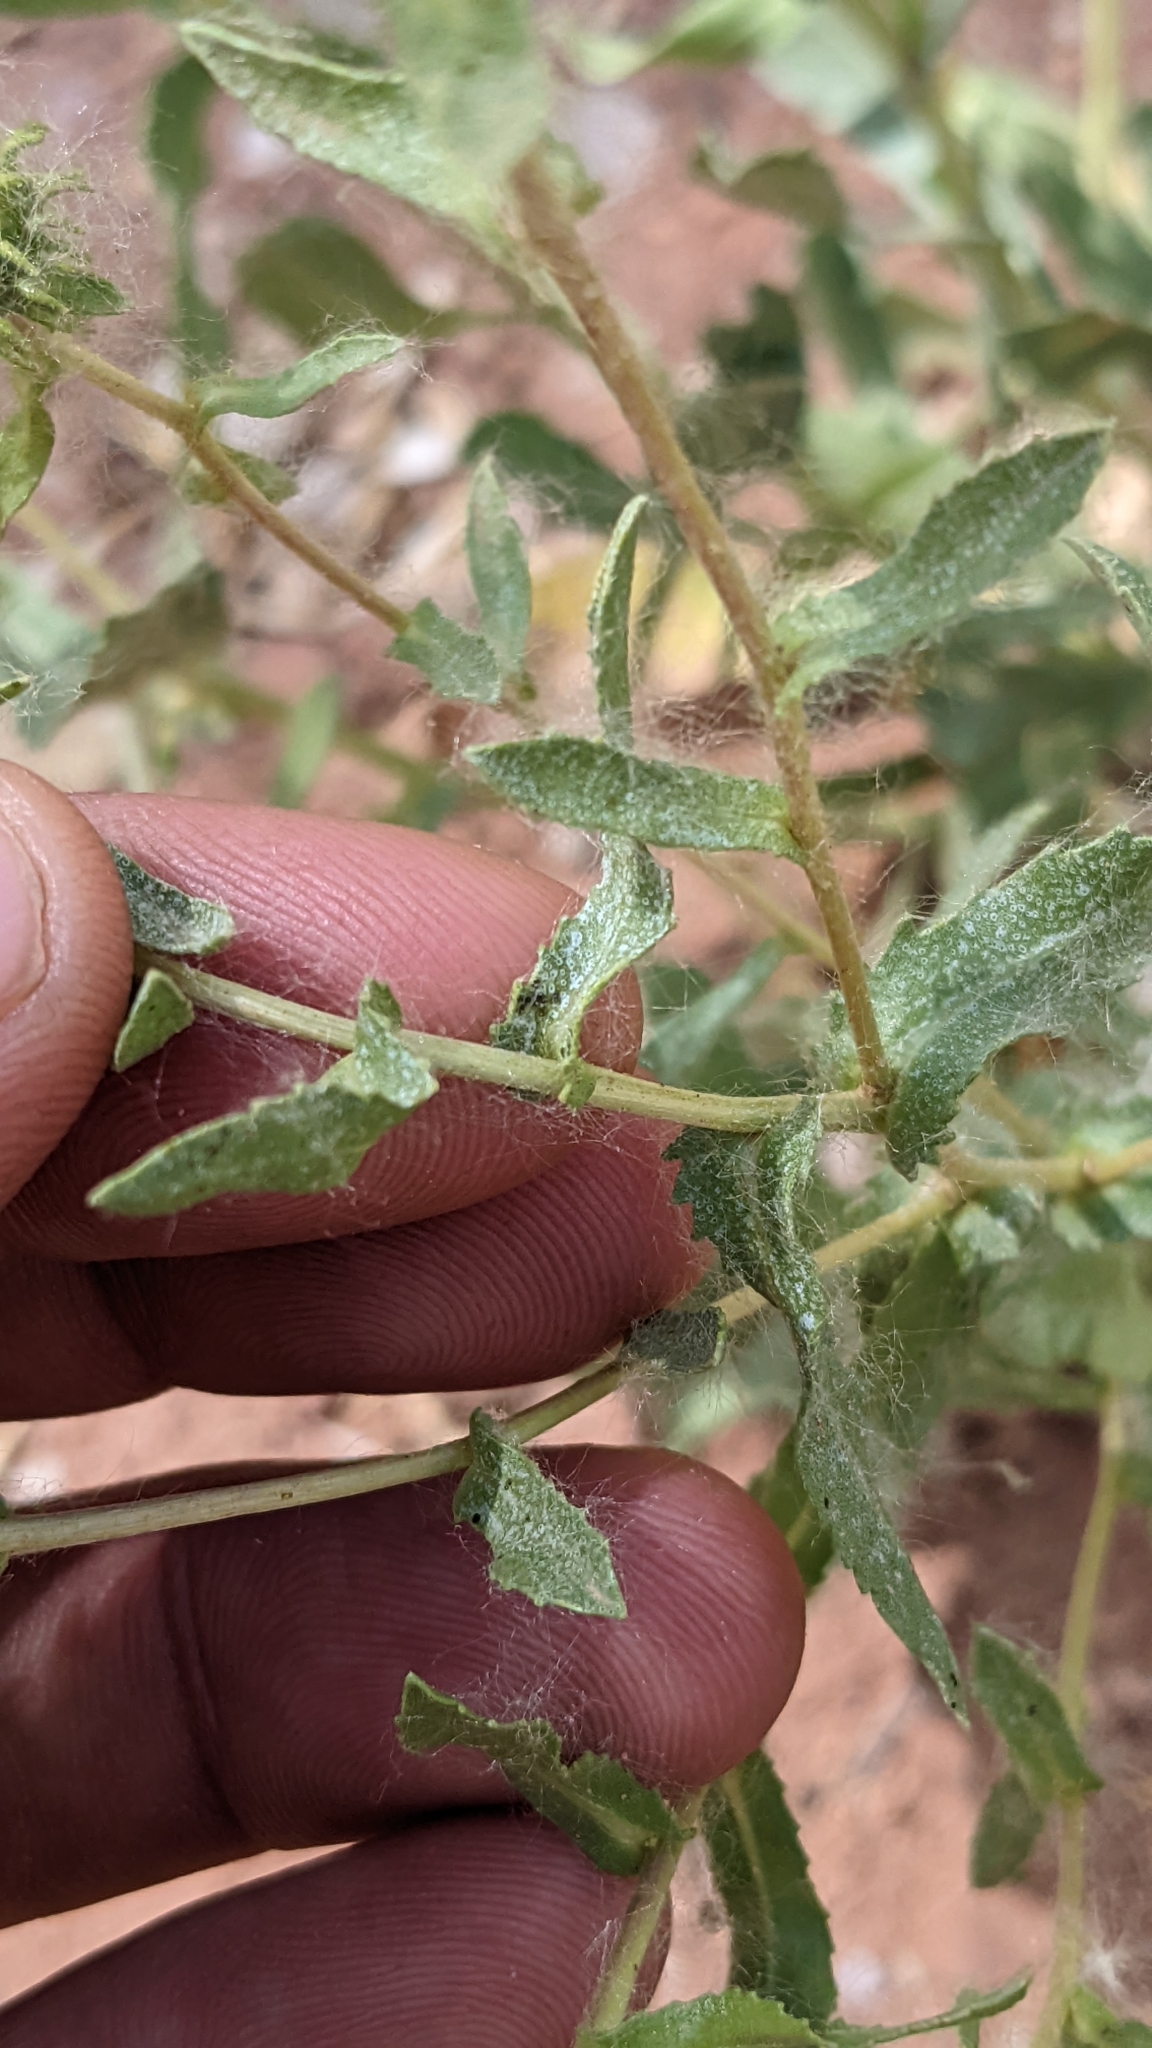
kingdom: Plantae
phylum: Tracheophyta
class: Magnoliopsida
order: Asterales
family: Asteraceae
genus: Grindelia
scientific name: Grindelia squarrosa
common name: Curly-cup gumweed
